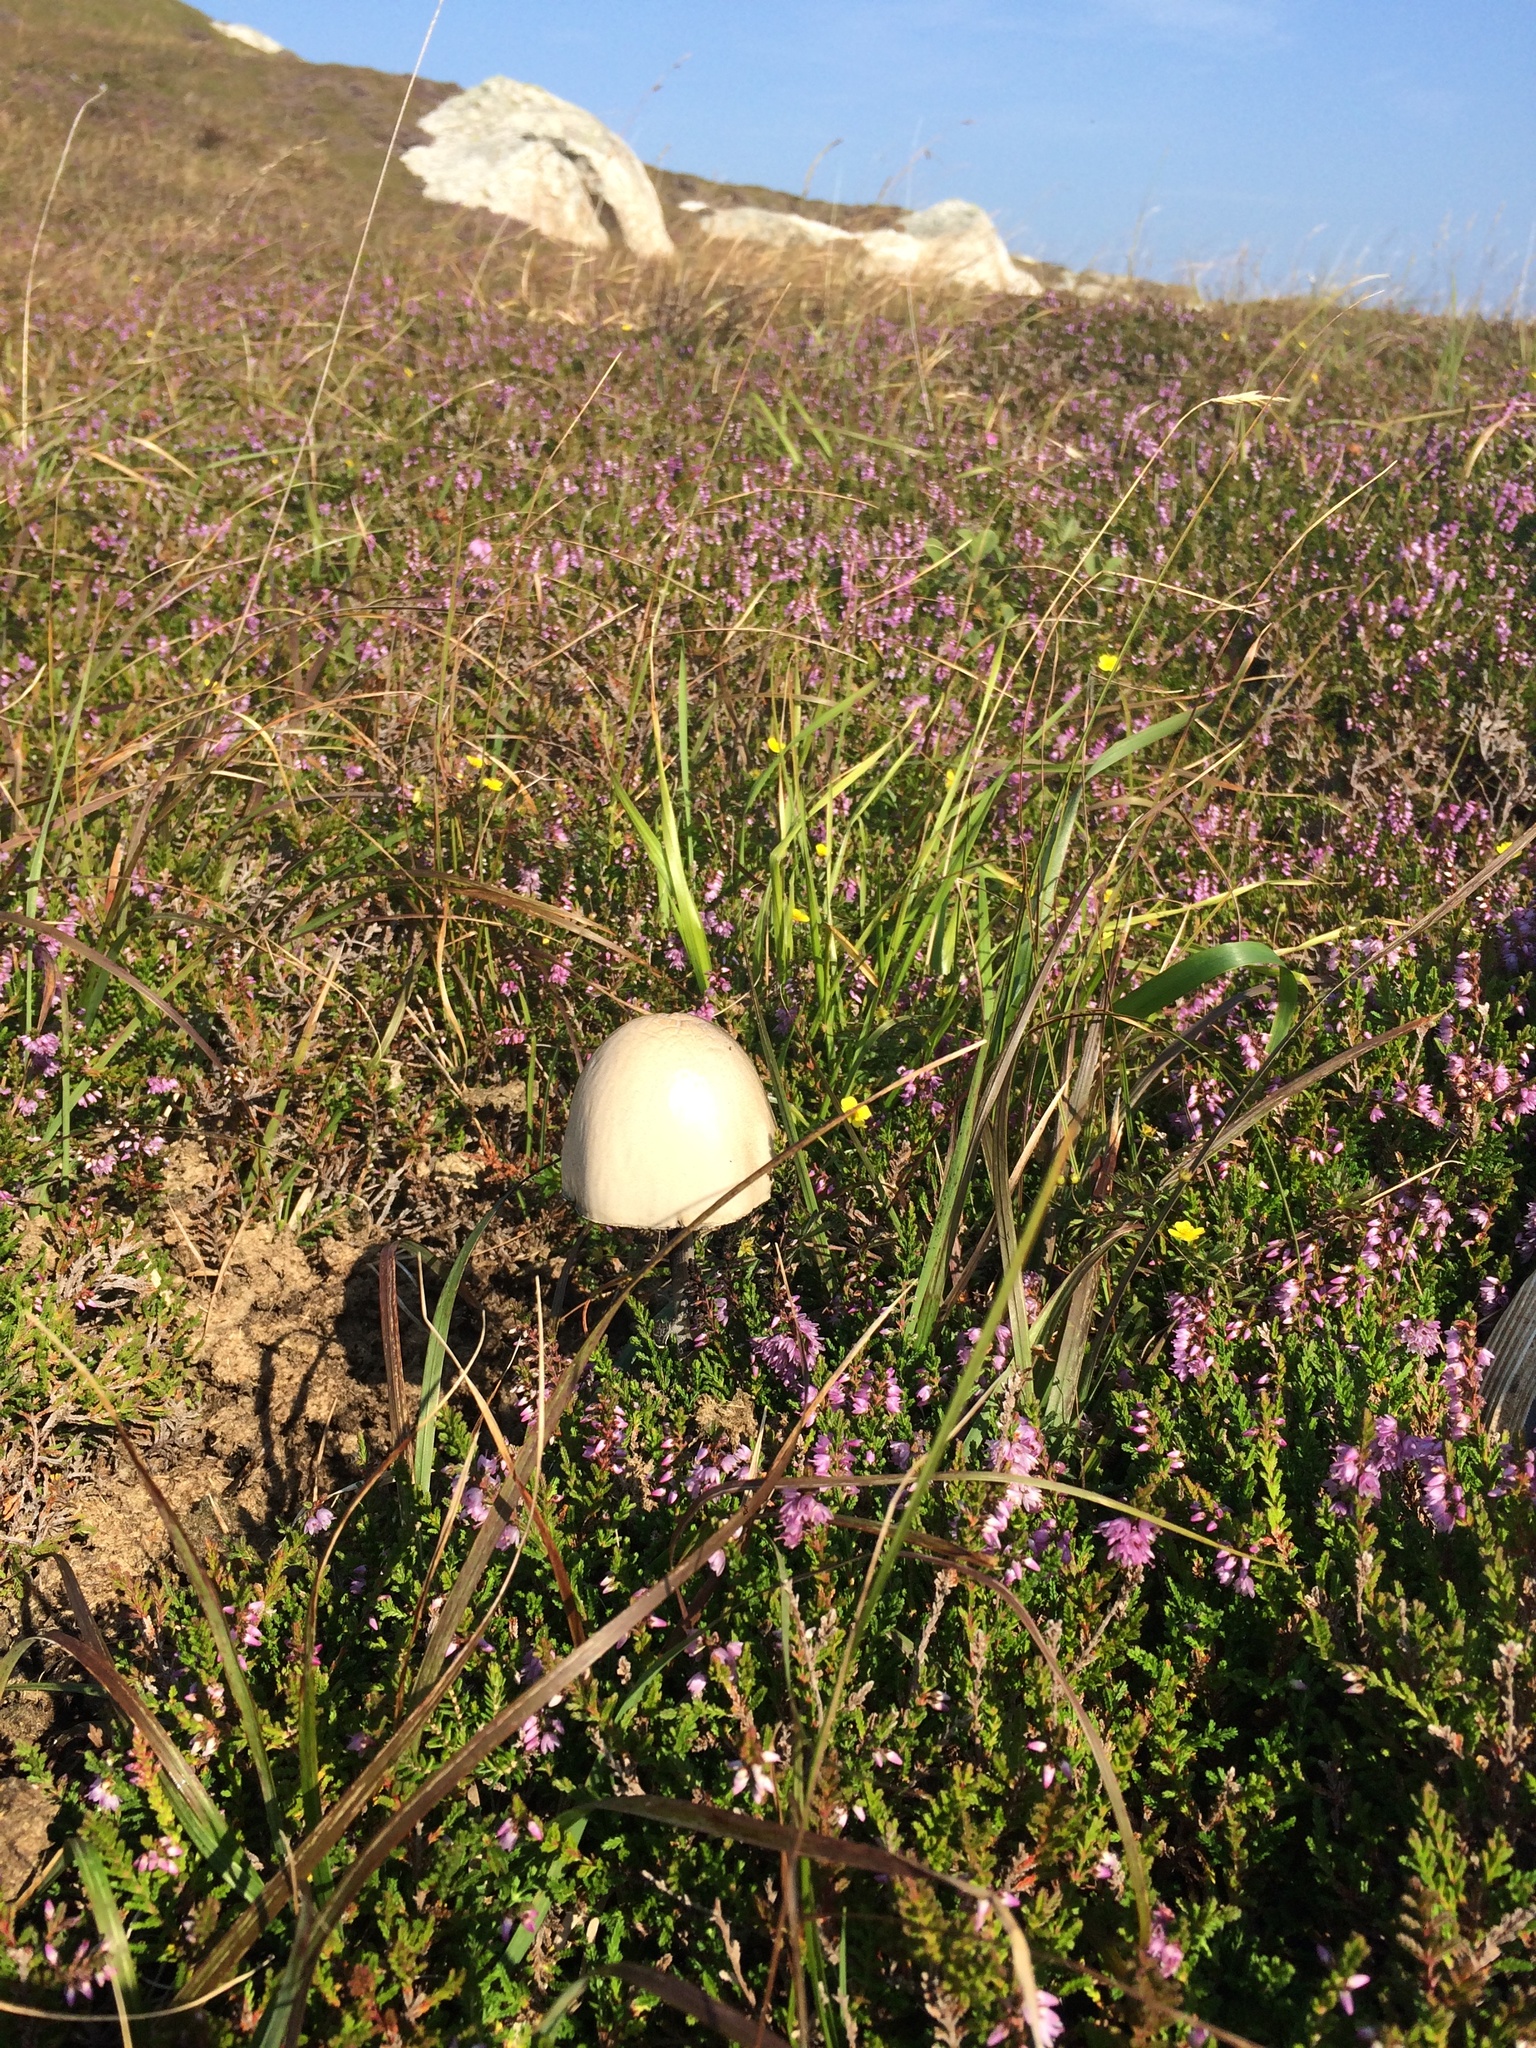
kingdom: Fungi
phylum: Basidiomycota
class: Agaricomycetes
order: Agaricales
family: Bolbitiaceae
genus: Panaeolus
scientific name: Panaeolus semiovatus
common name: Shiny mottlegill
